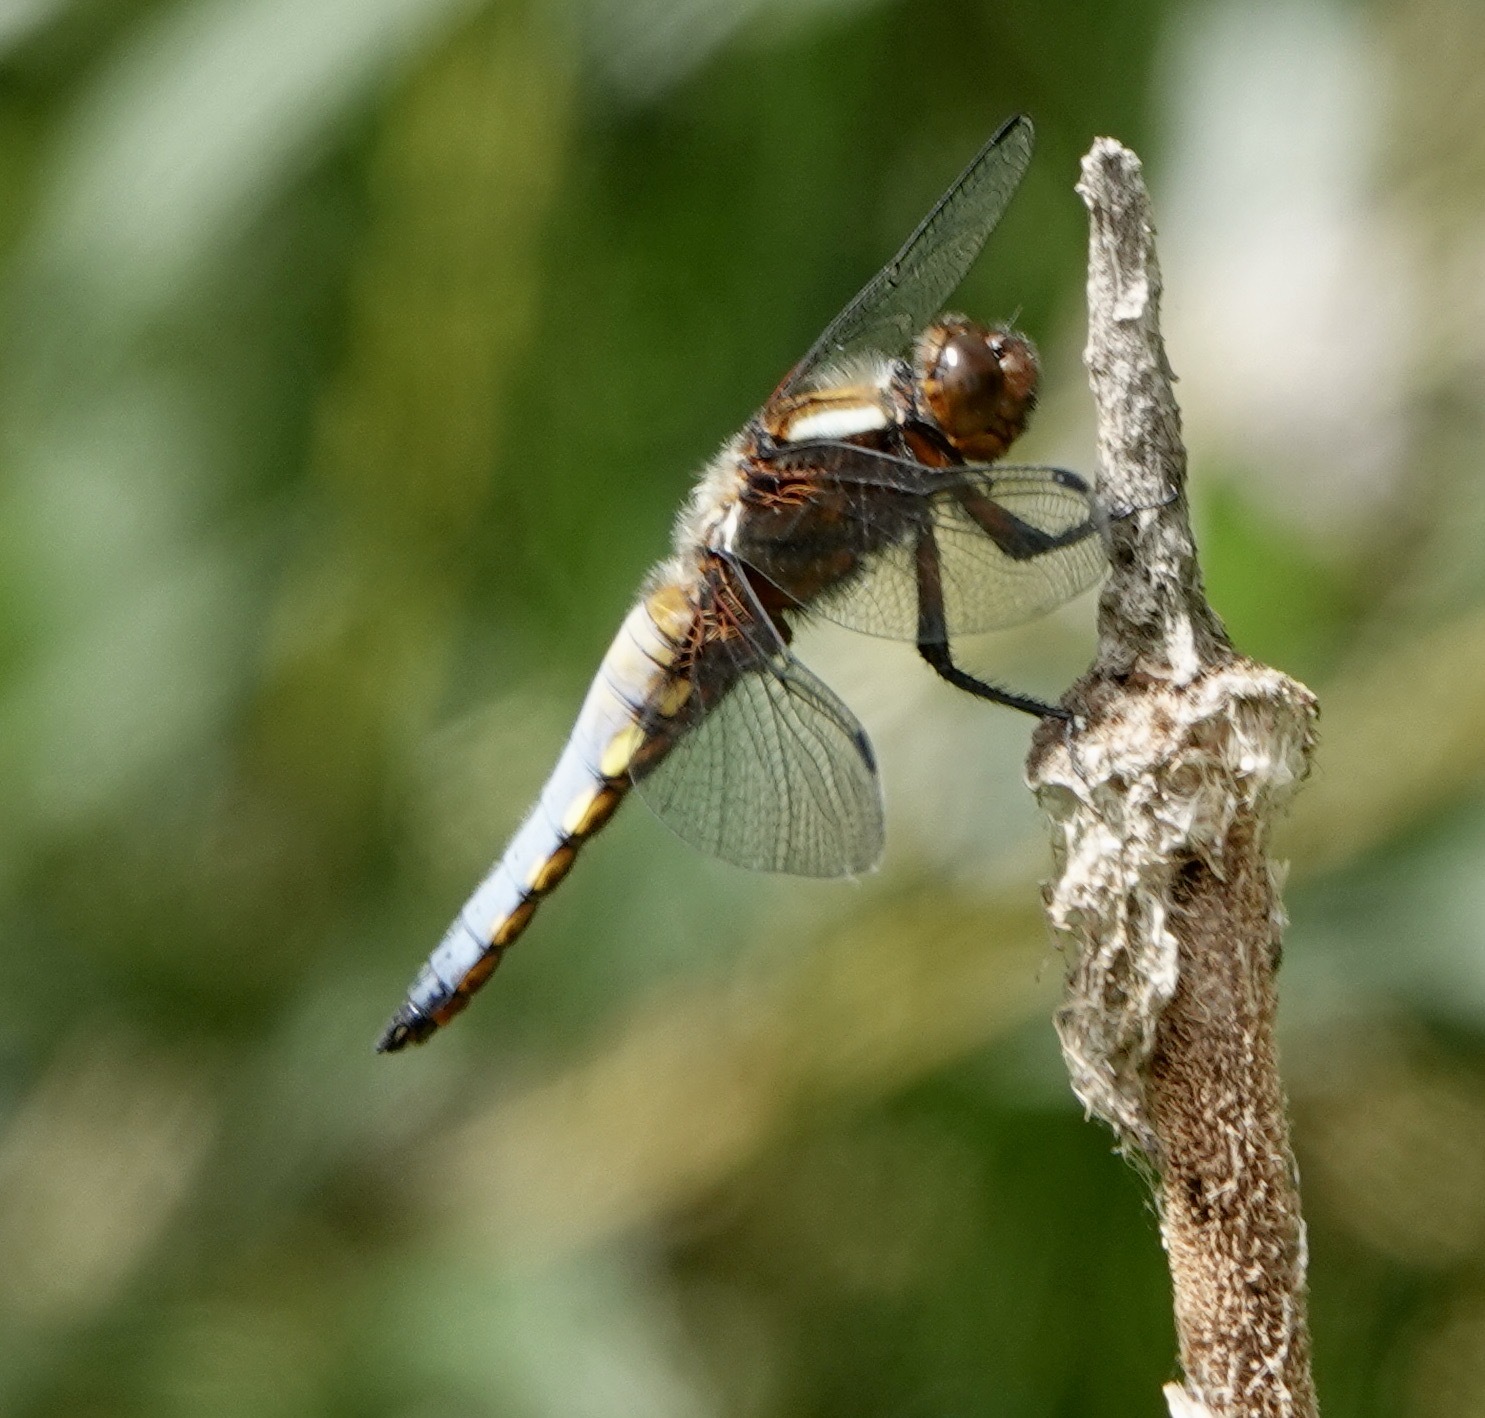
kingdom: Animalia
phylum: Arthropoda
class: Insecta
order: Odonata
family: Libellulidae
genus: Libellula
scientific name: Libellula depressa
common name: Broad-bodied chaser
